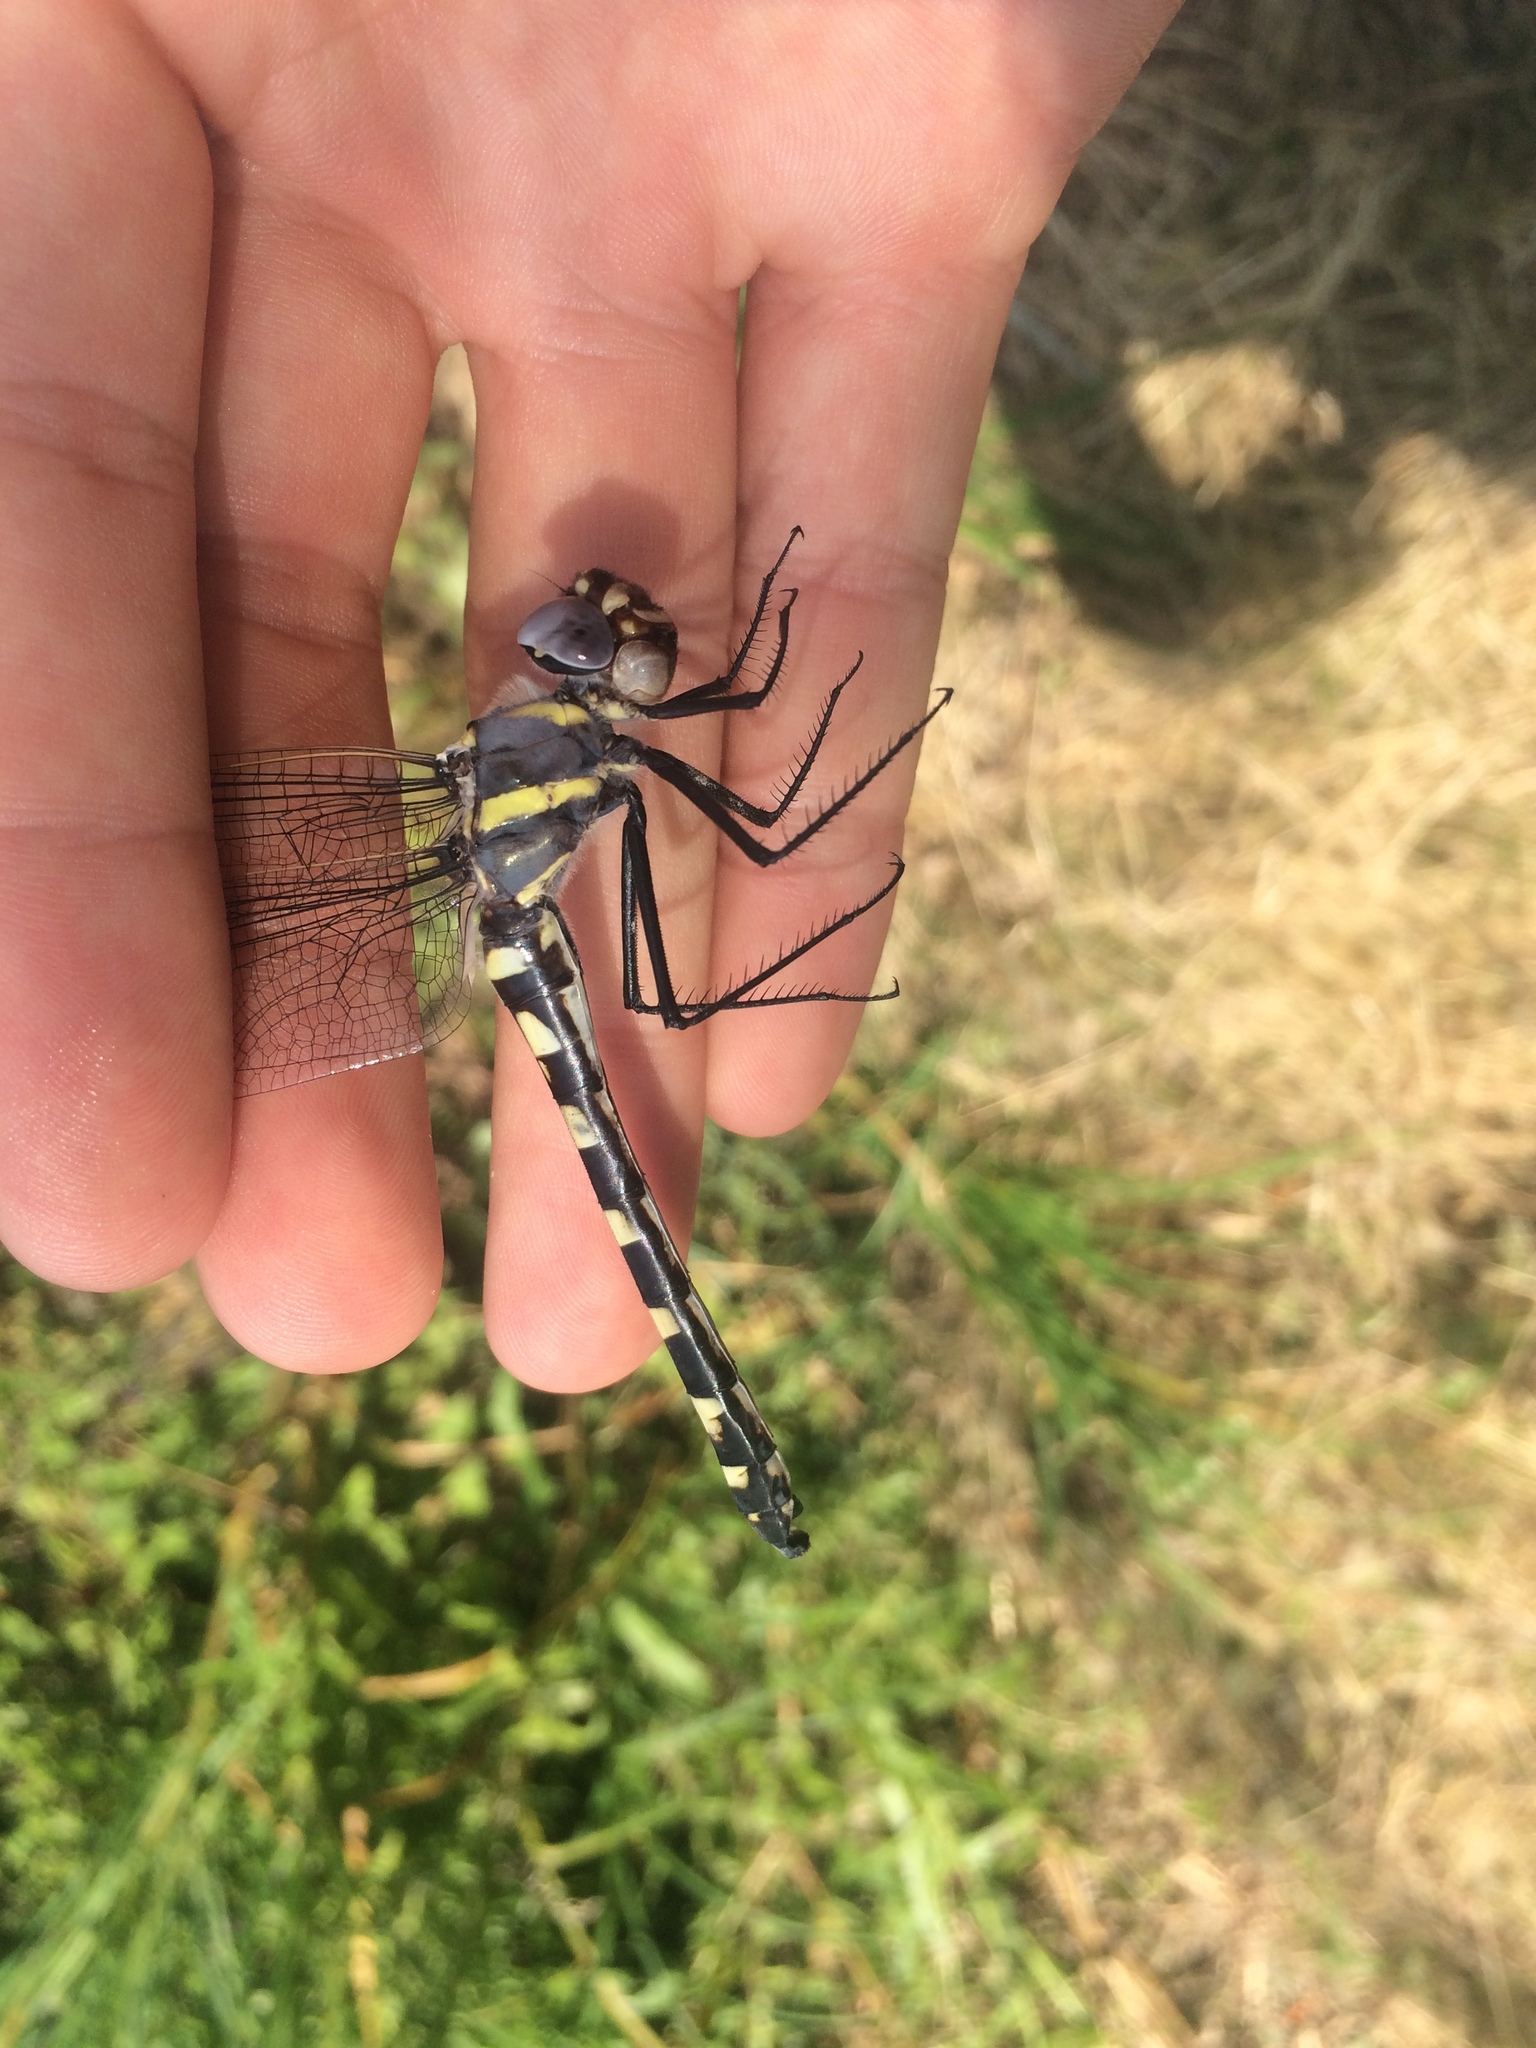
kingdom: Animalia
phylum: Arthropoda
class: Insecta
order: Odonata
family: Macromiidae
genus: Macromia
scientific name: Macromia magnifica
